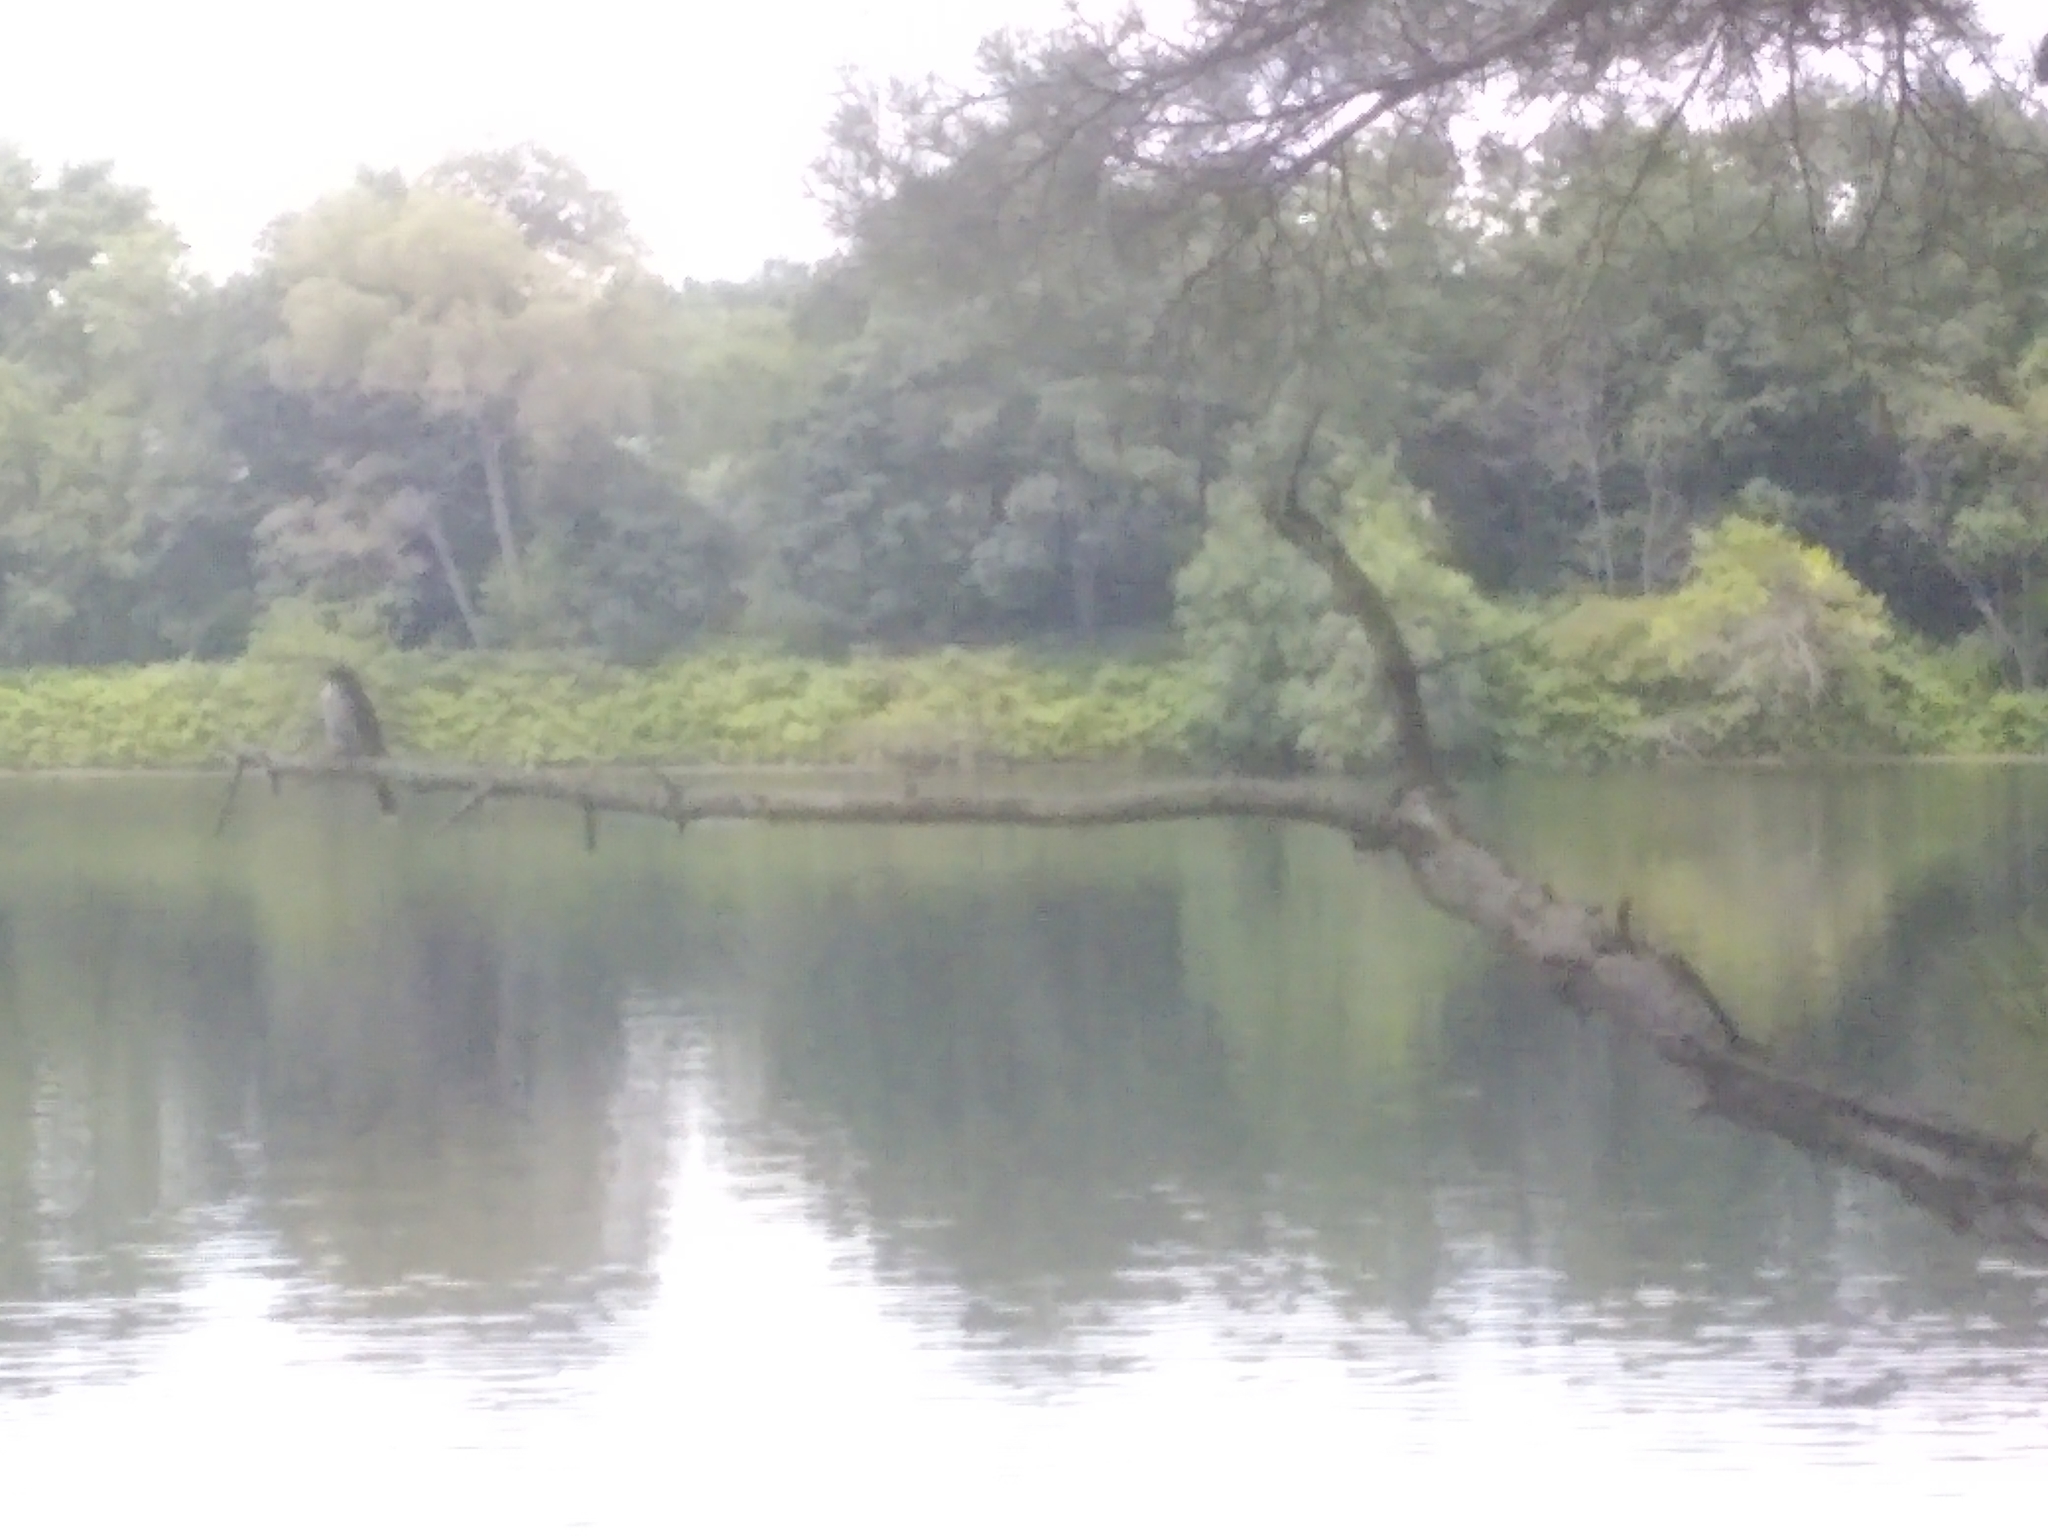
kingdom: Animalia
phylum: Chordata
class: Aves
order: Passeriformes
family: Tyrannidae
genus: Tyrannus
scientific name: Tyrannus tyrannus
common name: Eastern kingbird
